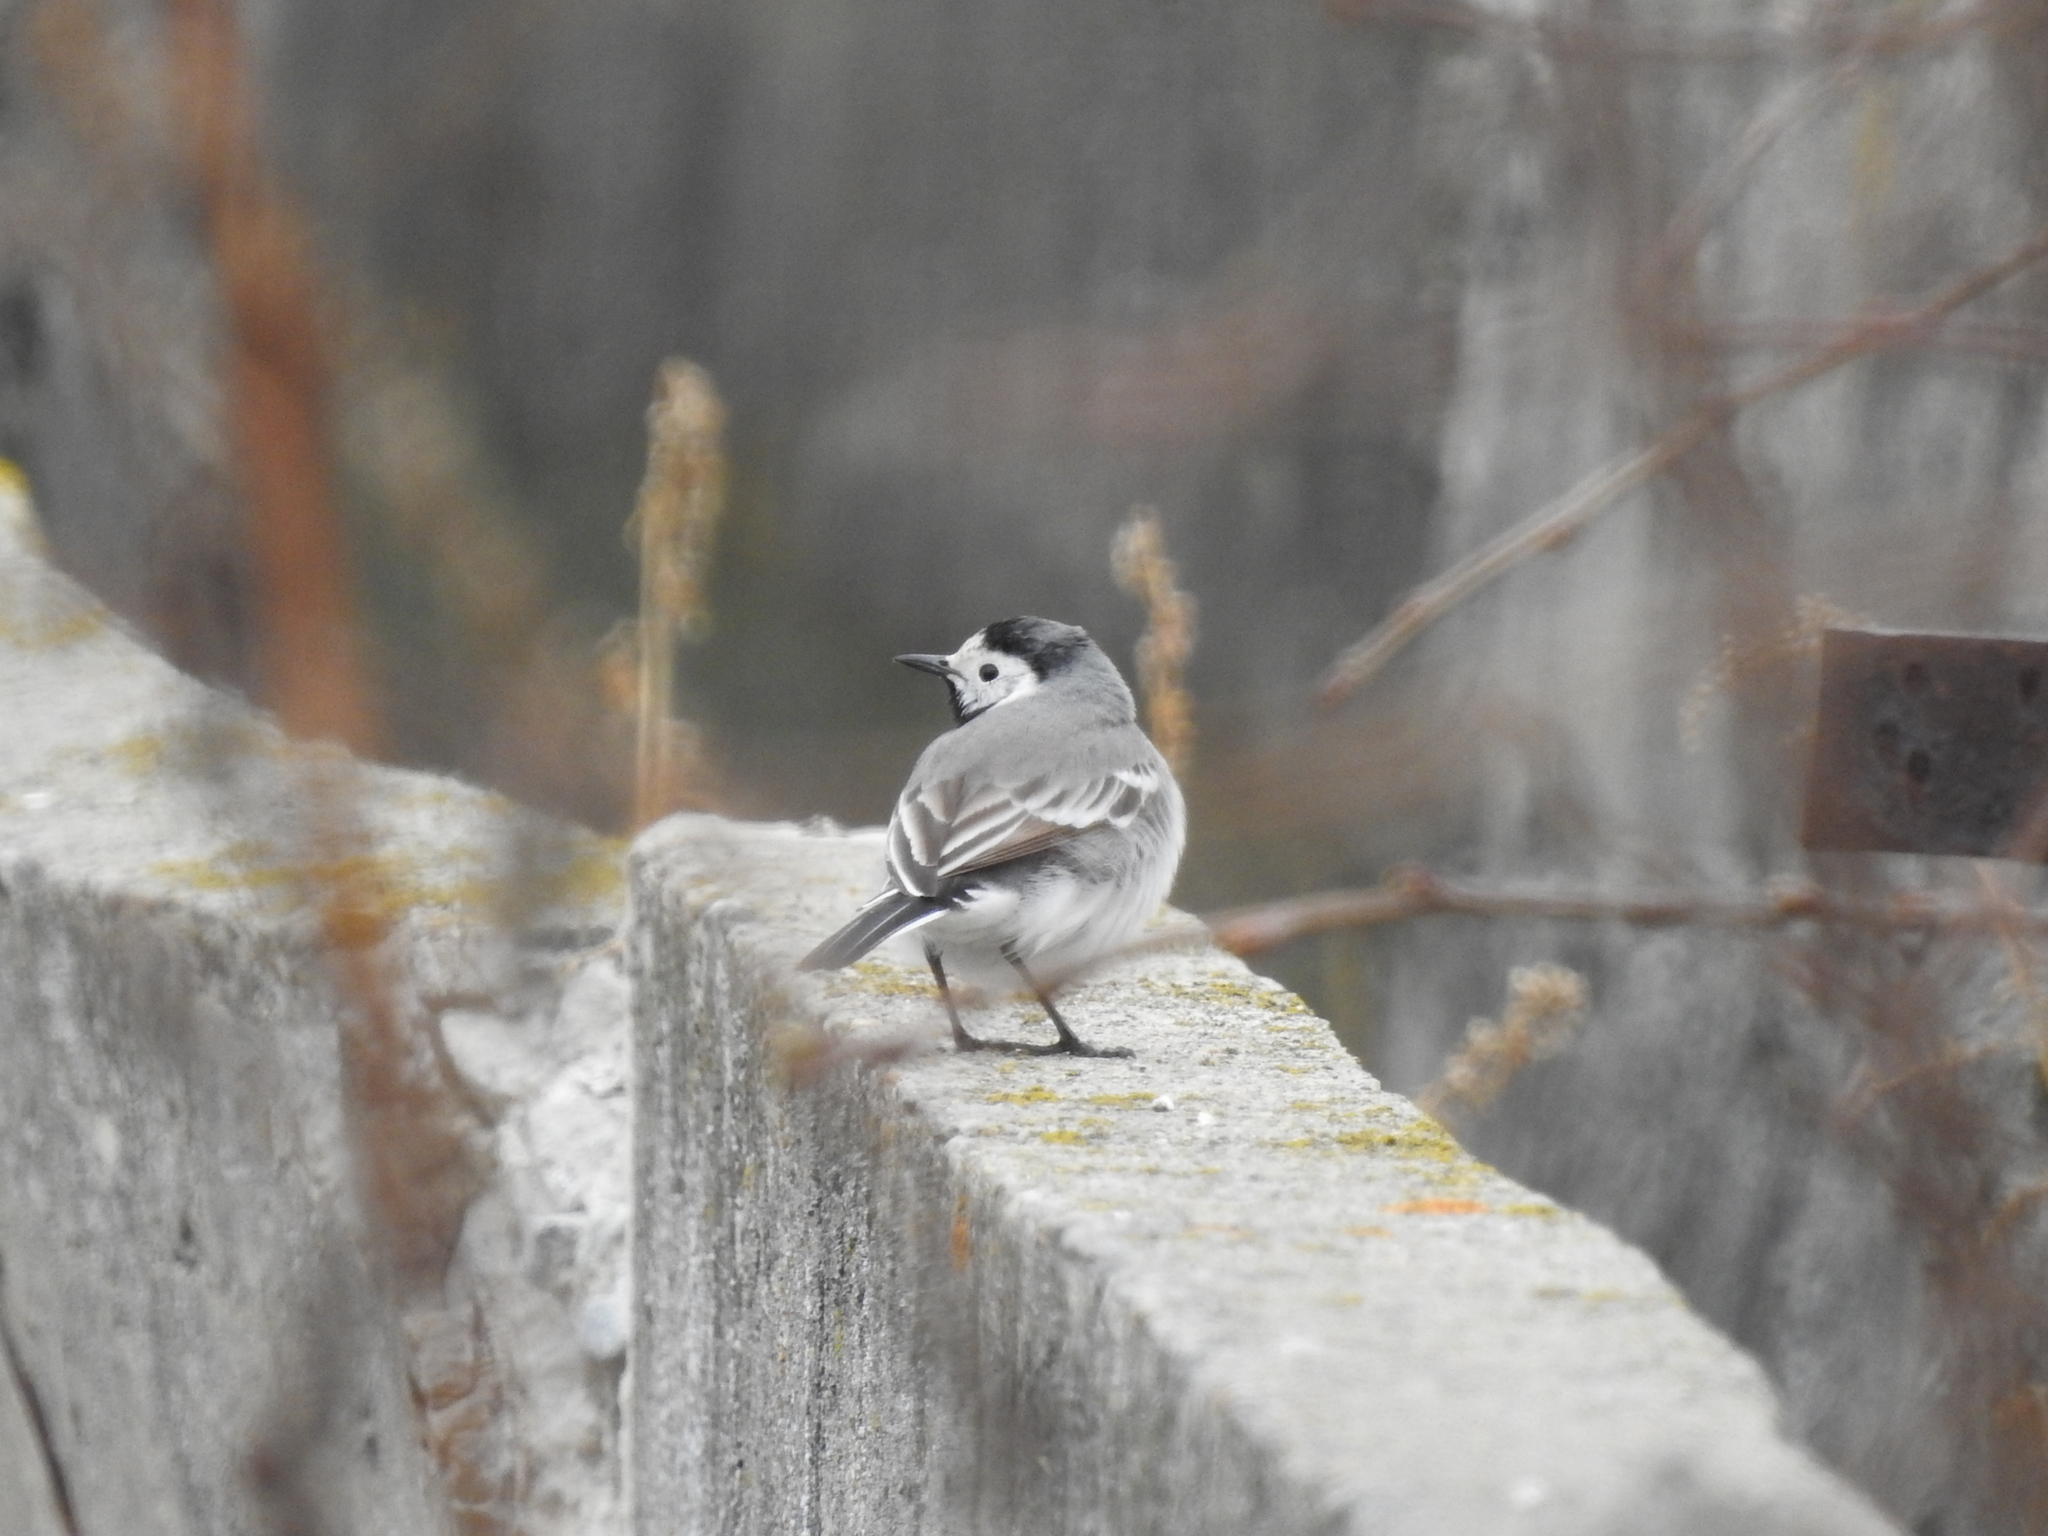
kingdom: Animalia
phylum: Chordata
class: Aves
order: Passeriformes
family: Motacillidae
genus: Motacilla
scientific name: Motacilla alba
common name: White wagtail
